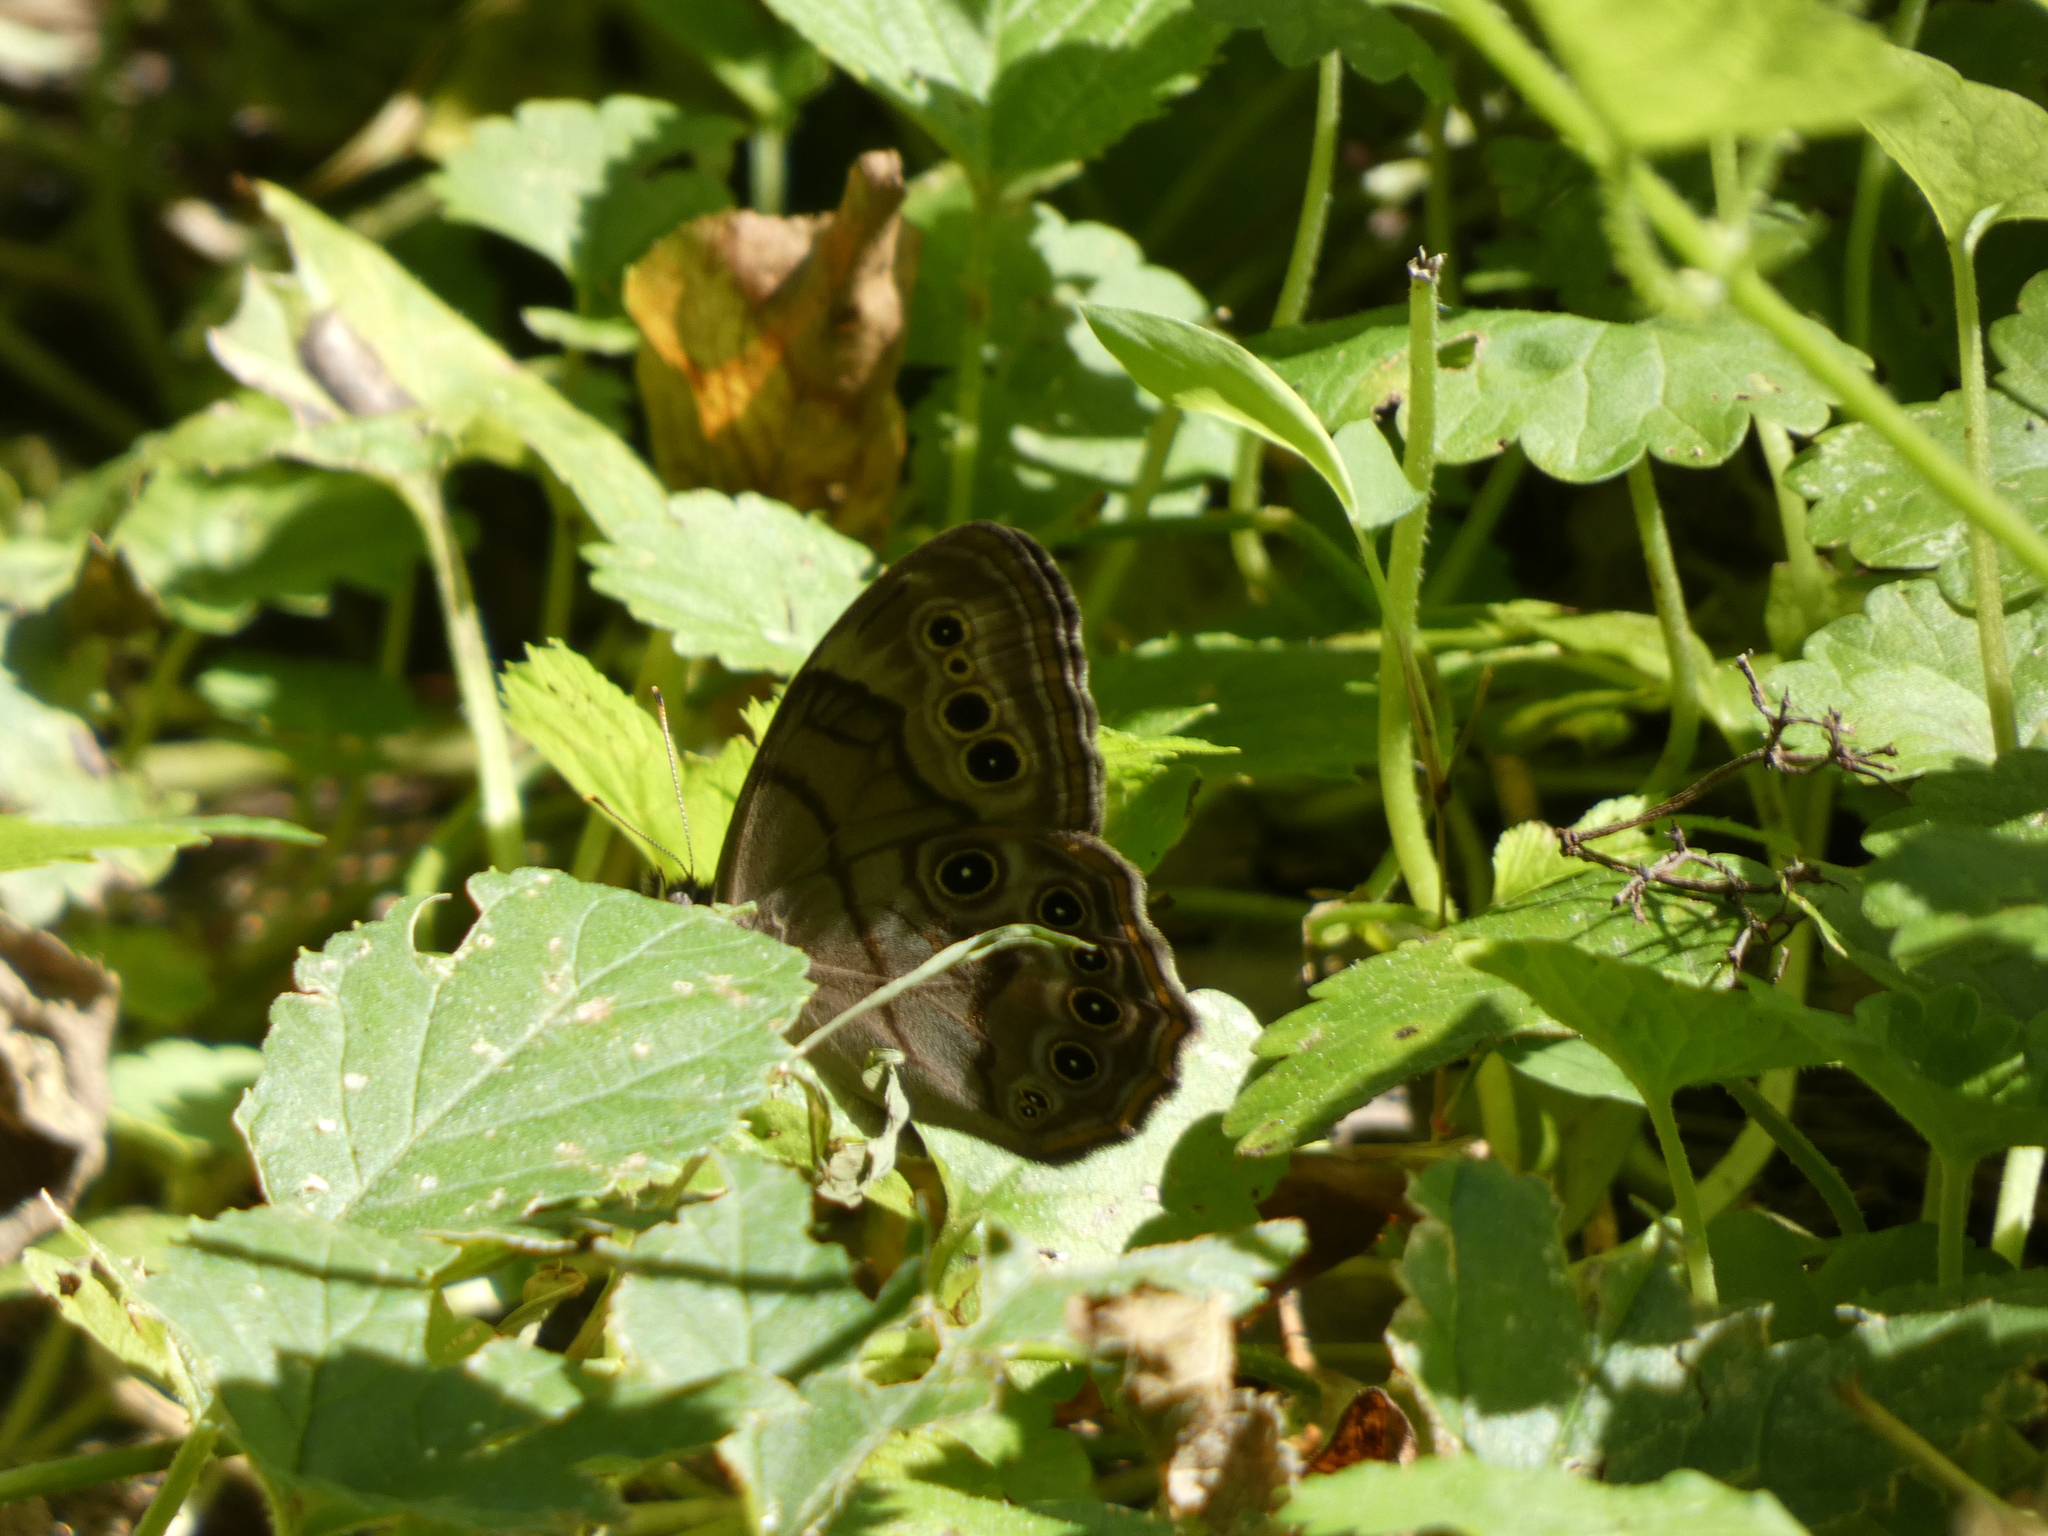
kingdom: Animalia
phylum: Arthropoda
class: Insecta
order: Lepidoptera
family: Nymphalidae
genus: Lethe
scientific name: Lethe anthedon
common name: Northern pearly-eye
